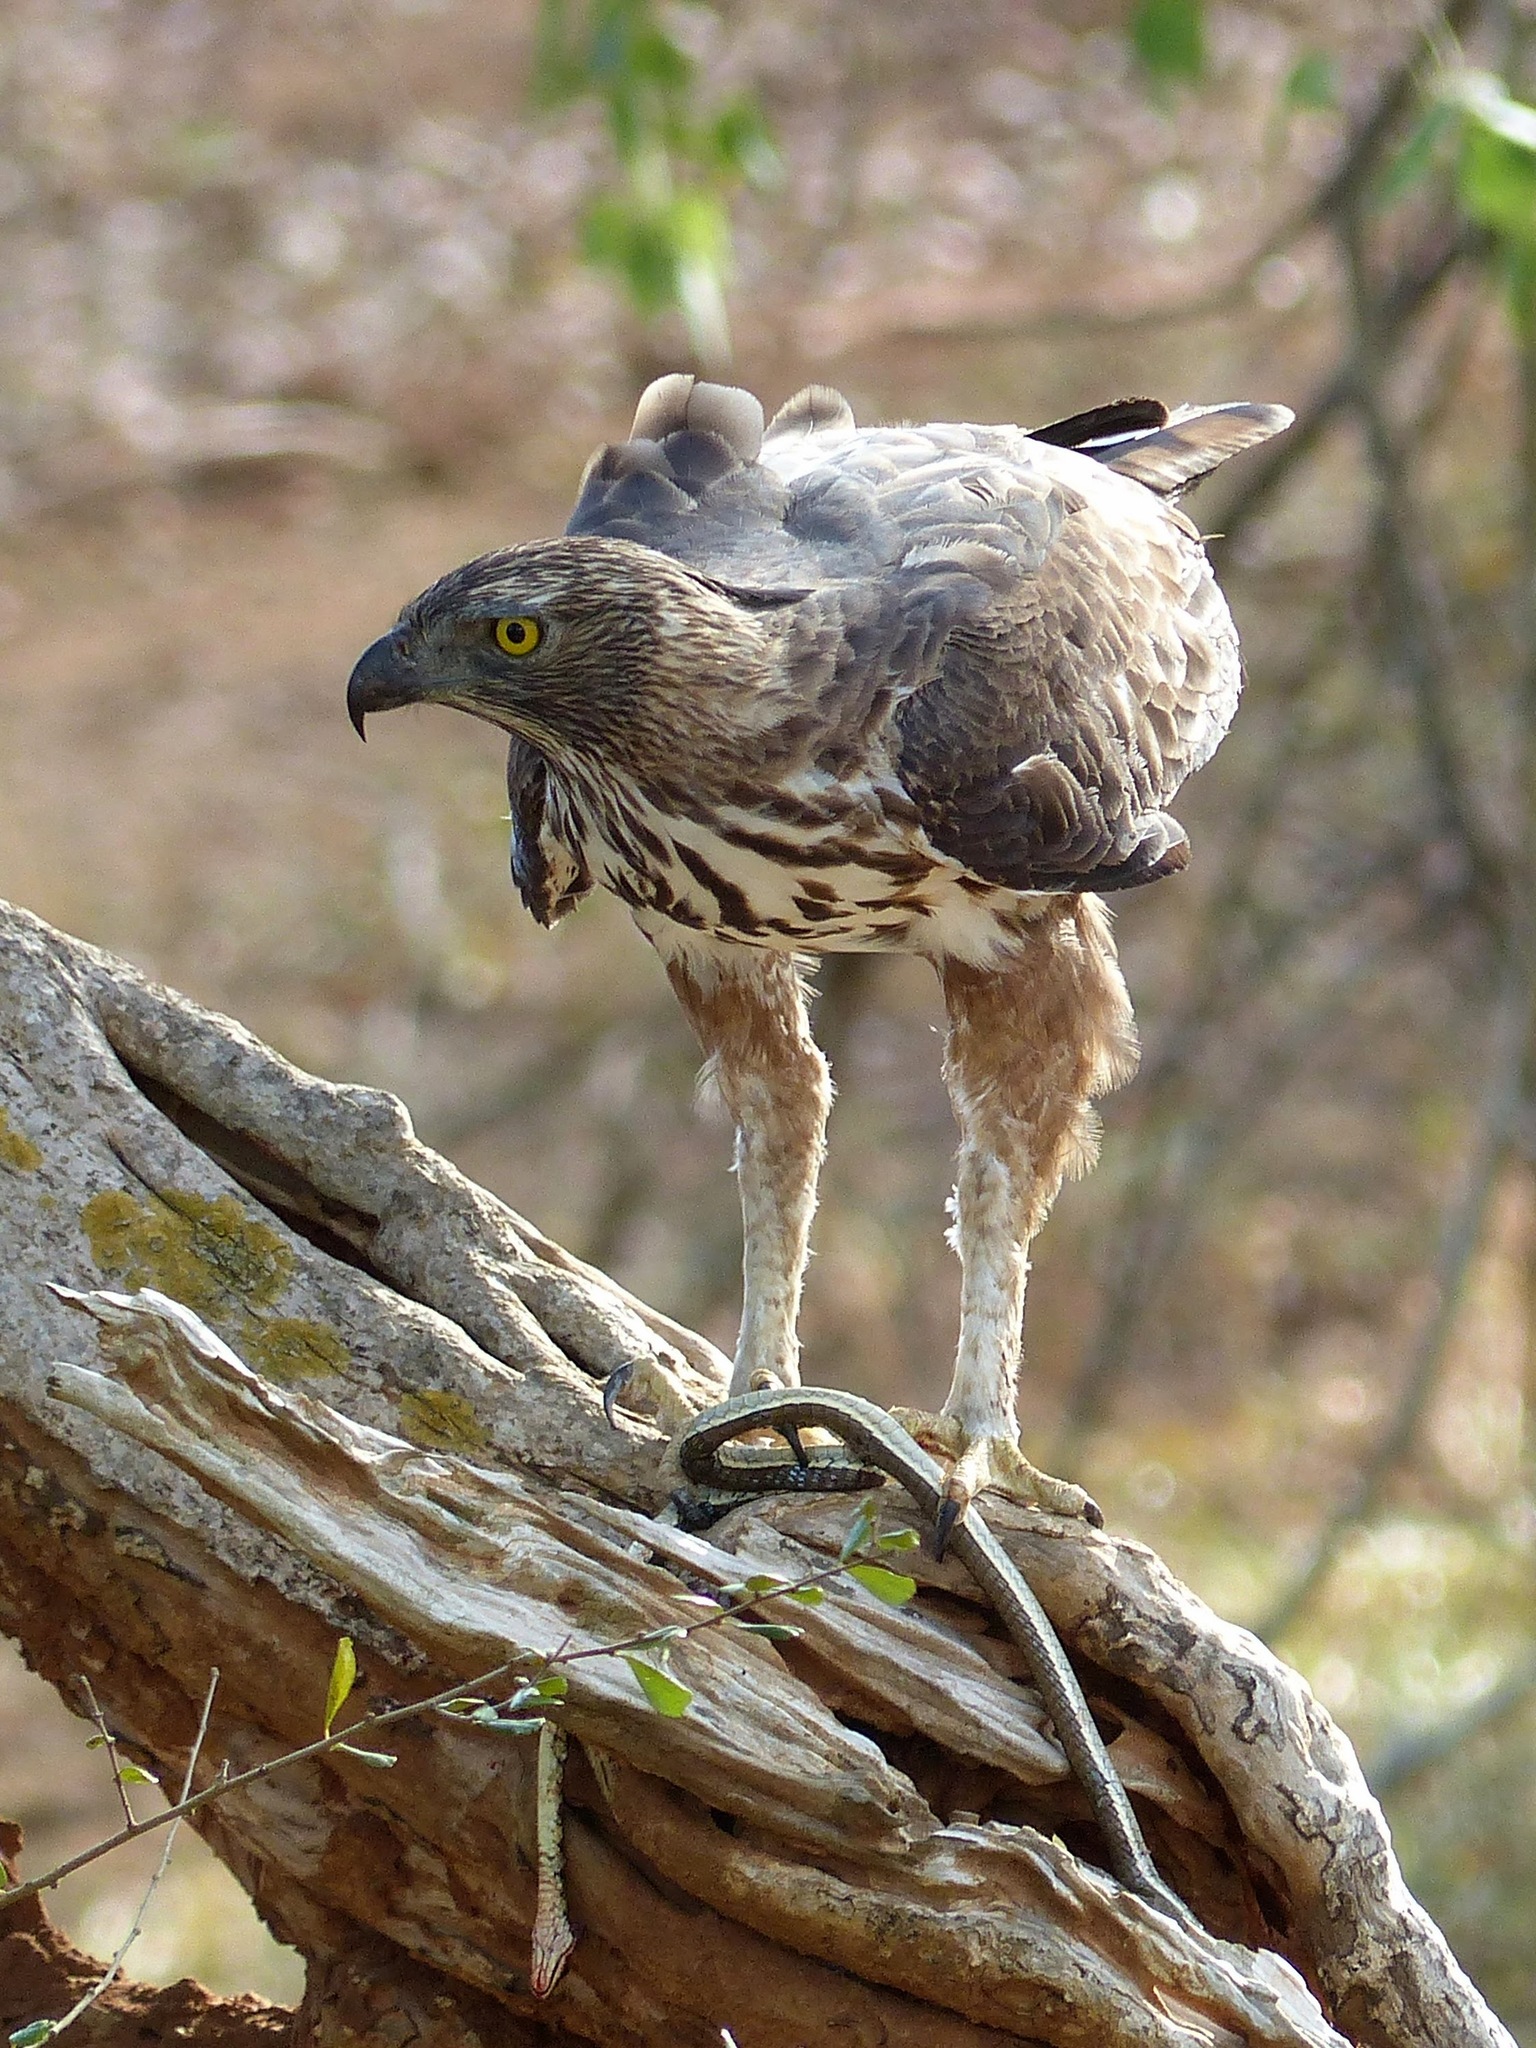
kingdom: Animalia
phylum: Chordata
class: Aves
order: Accipitriformes
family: Accipitridae
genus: Nisaetus
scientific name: Nisaetus cirrhatus
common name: Changeable hawk-eagle
